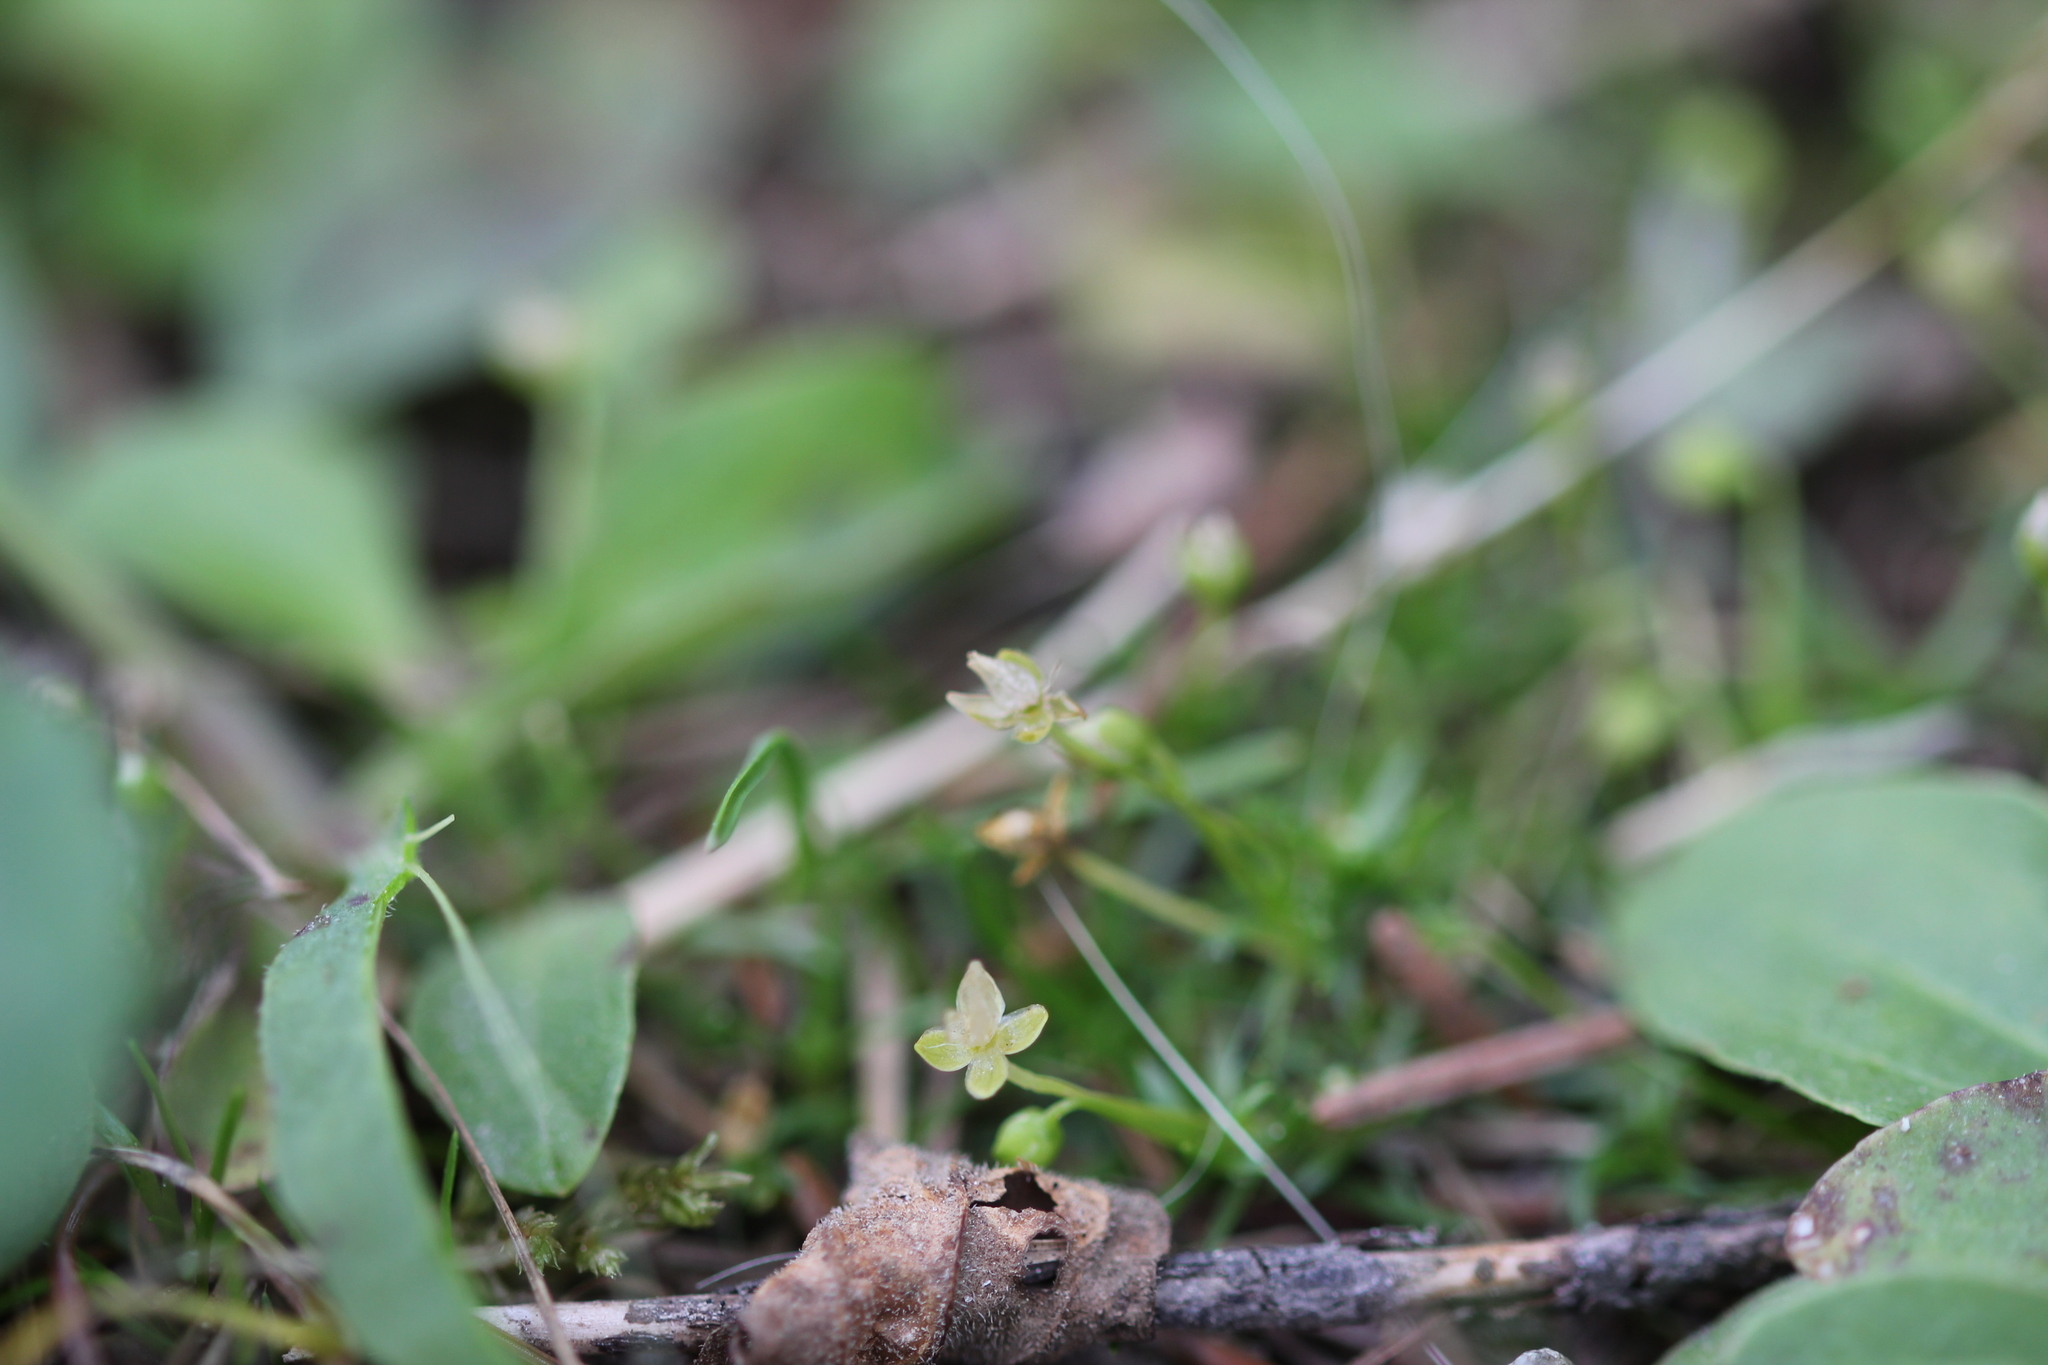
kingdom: Plantae
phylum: Tracheophyta
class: Magnoliopsida
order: Caryophyllales
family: Caryophyllaceae
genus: Sagina
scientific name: Sagina procumbens
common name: Procumbent pearlwort
